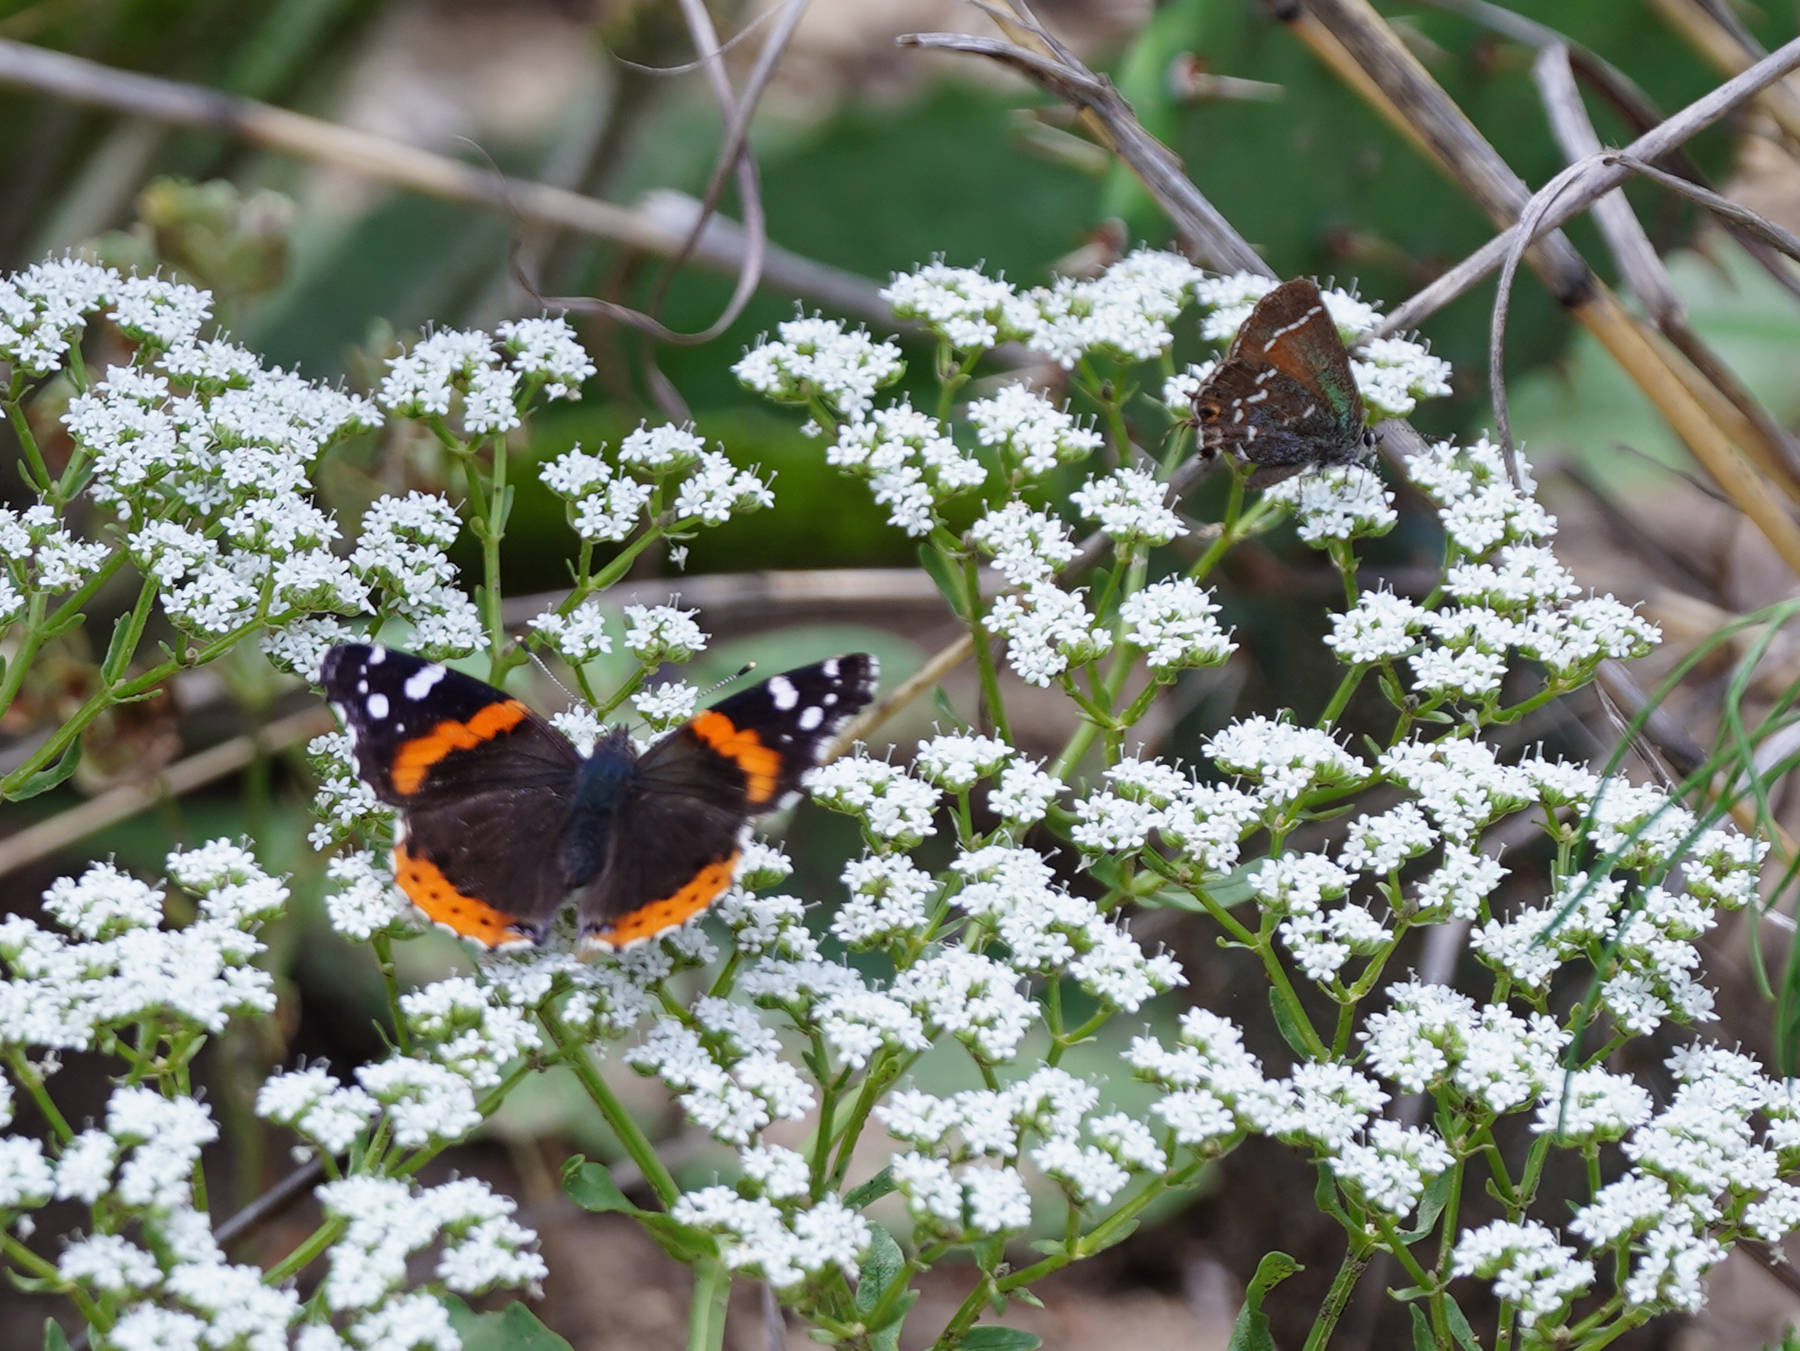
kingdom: Animalia
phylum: Arthropoda
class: Insecta
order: Lepidoptera
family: Nymphalidae
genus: Vanessa
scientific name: Vanessa atalanta
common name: Red admiral
